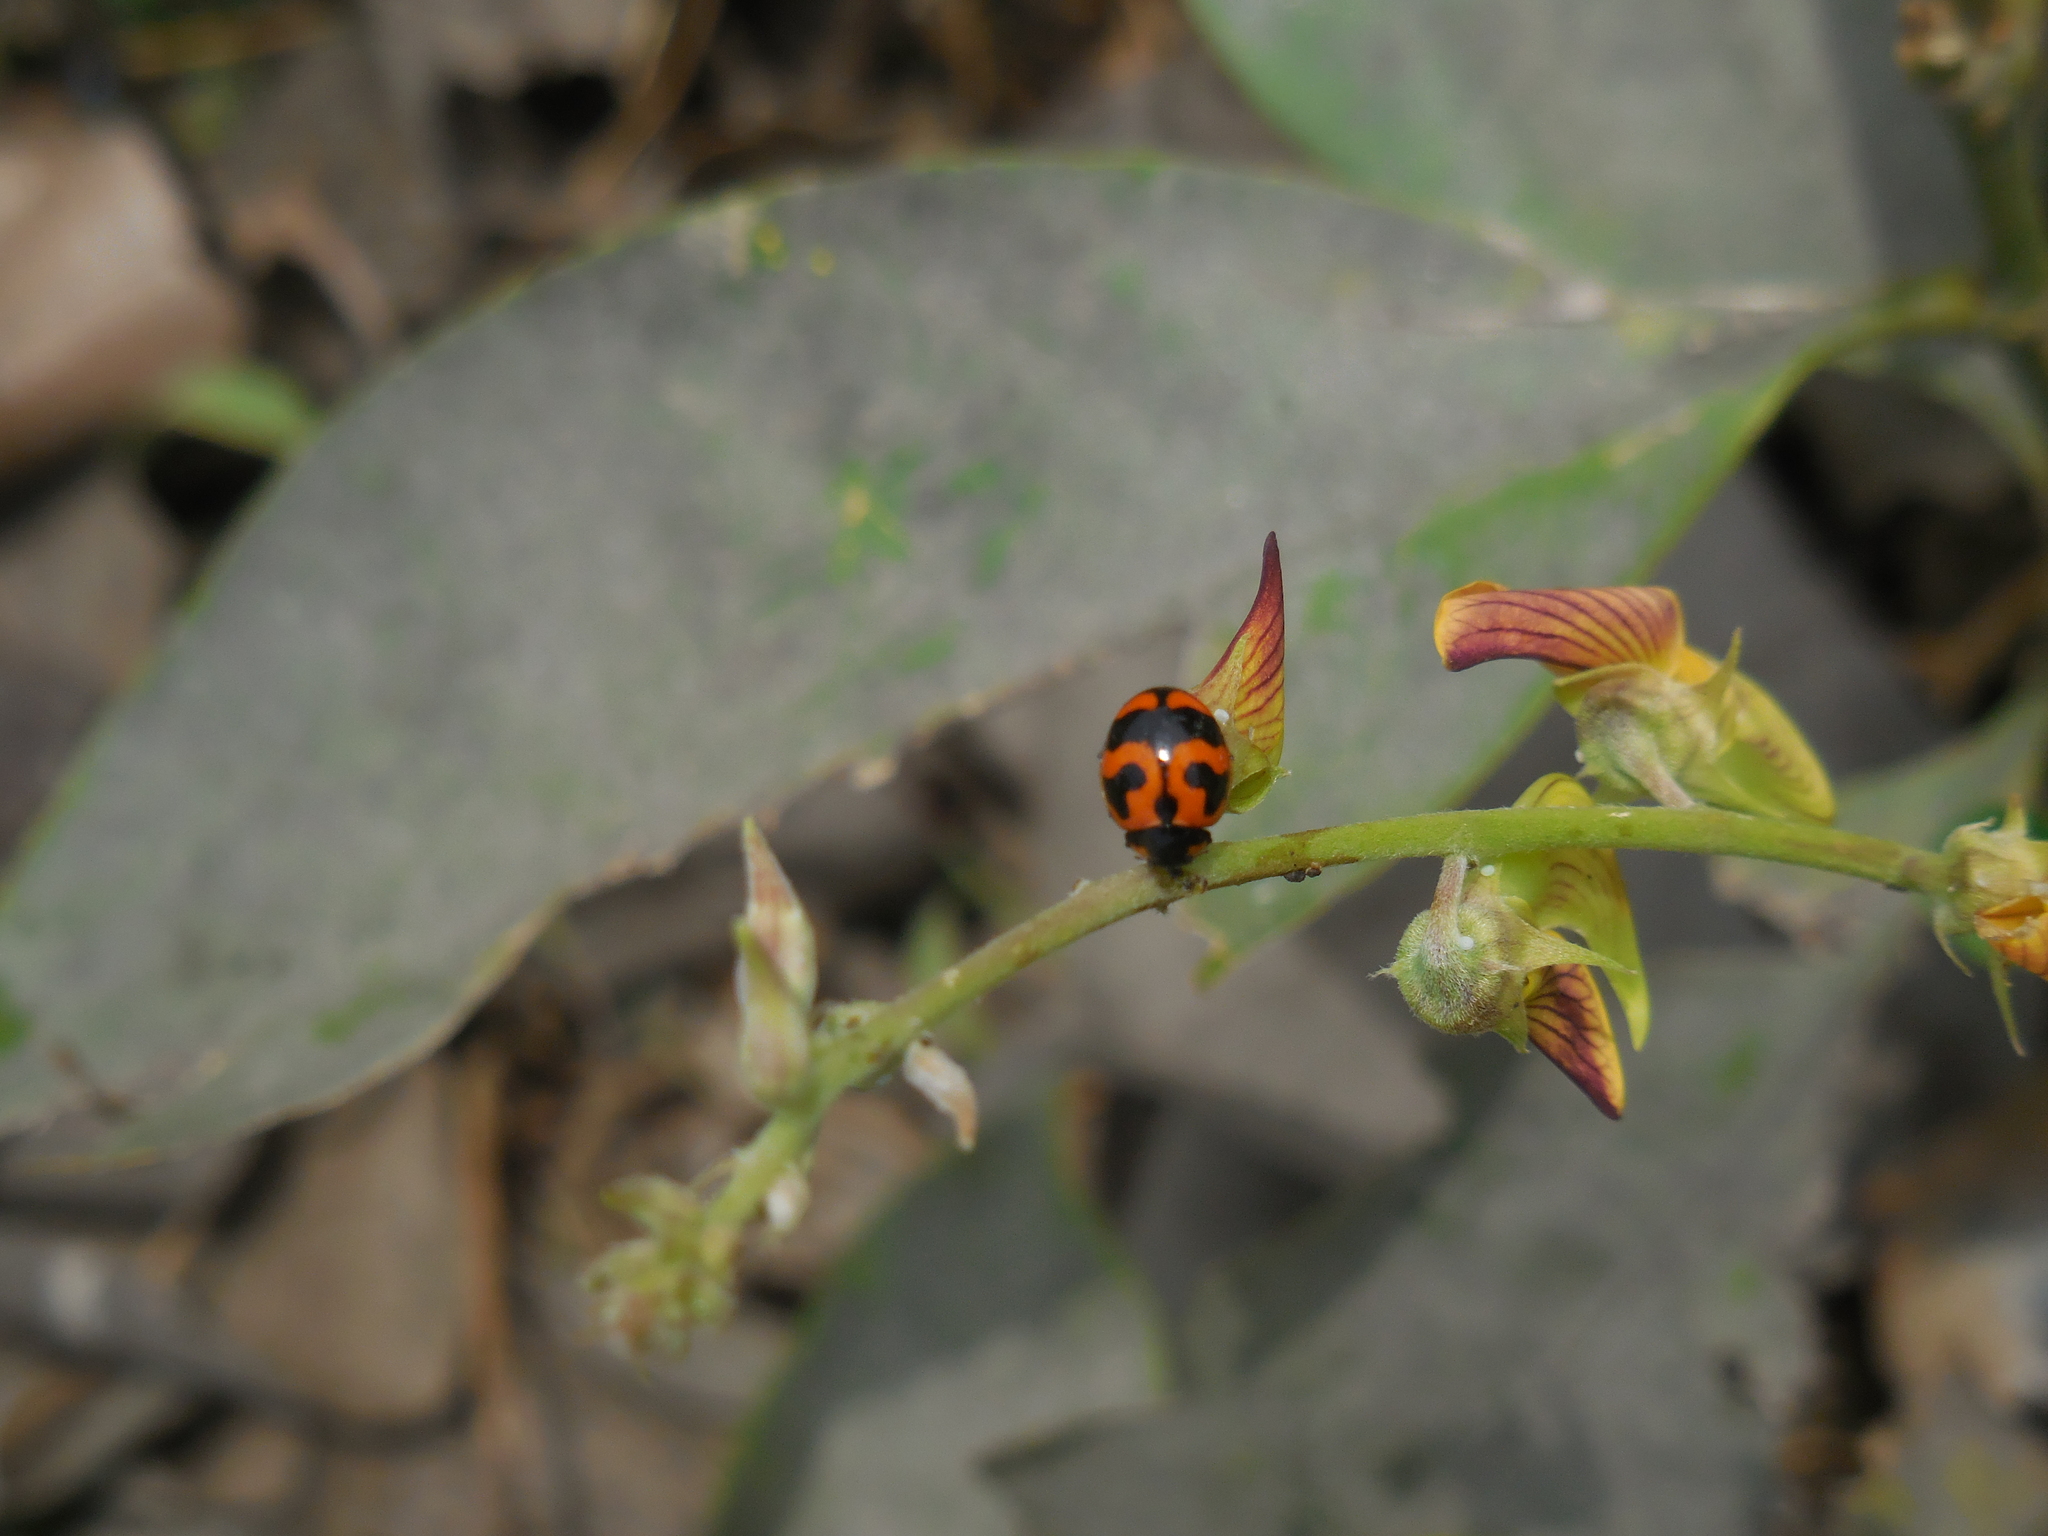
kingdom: Animalia
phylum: Arthropoda
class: Insecta
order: Coleoptera
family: Coccinellidae
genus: Coccinella
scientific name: Coccinella transversalis
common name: Transverse lady beetle
